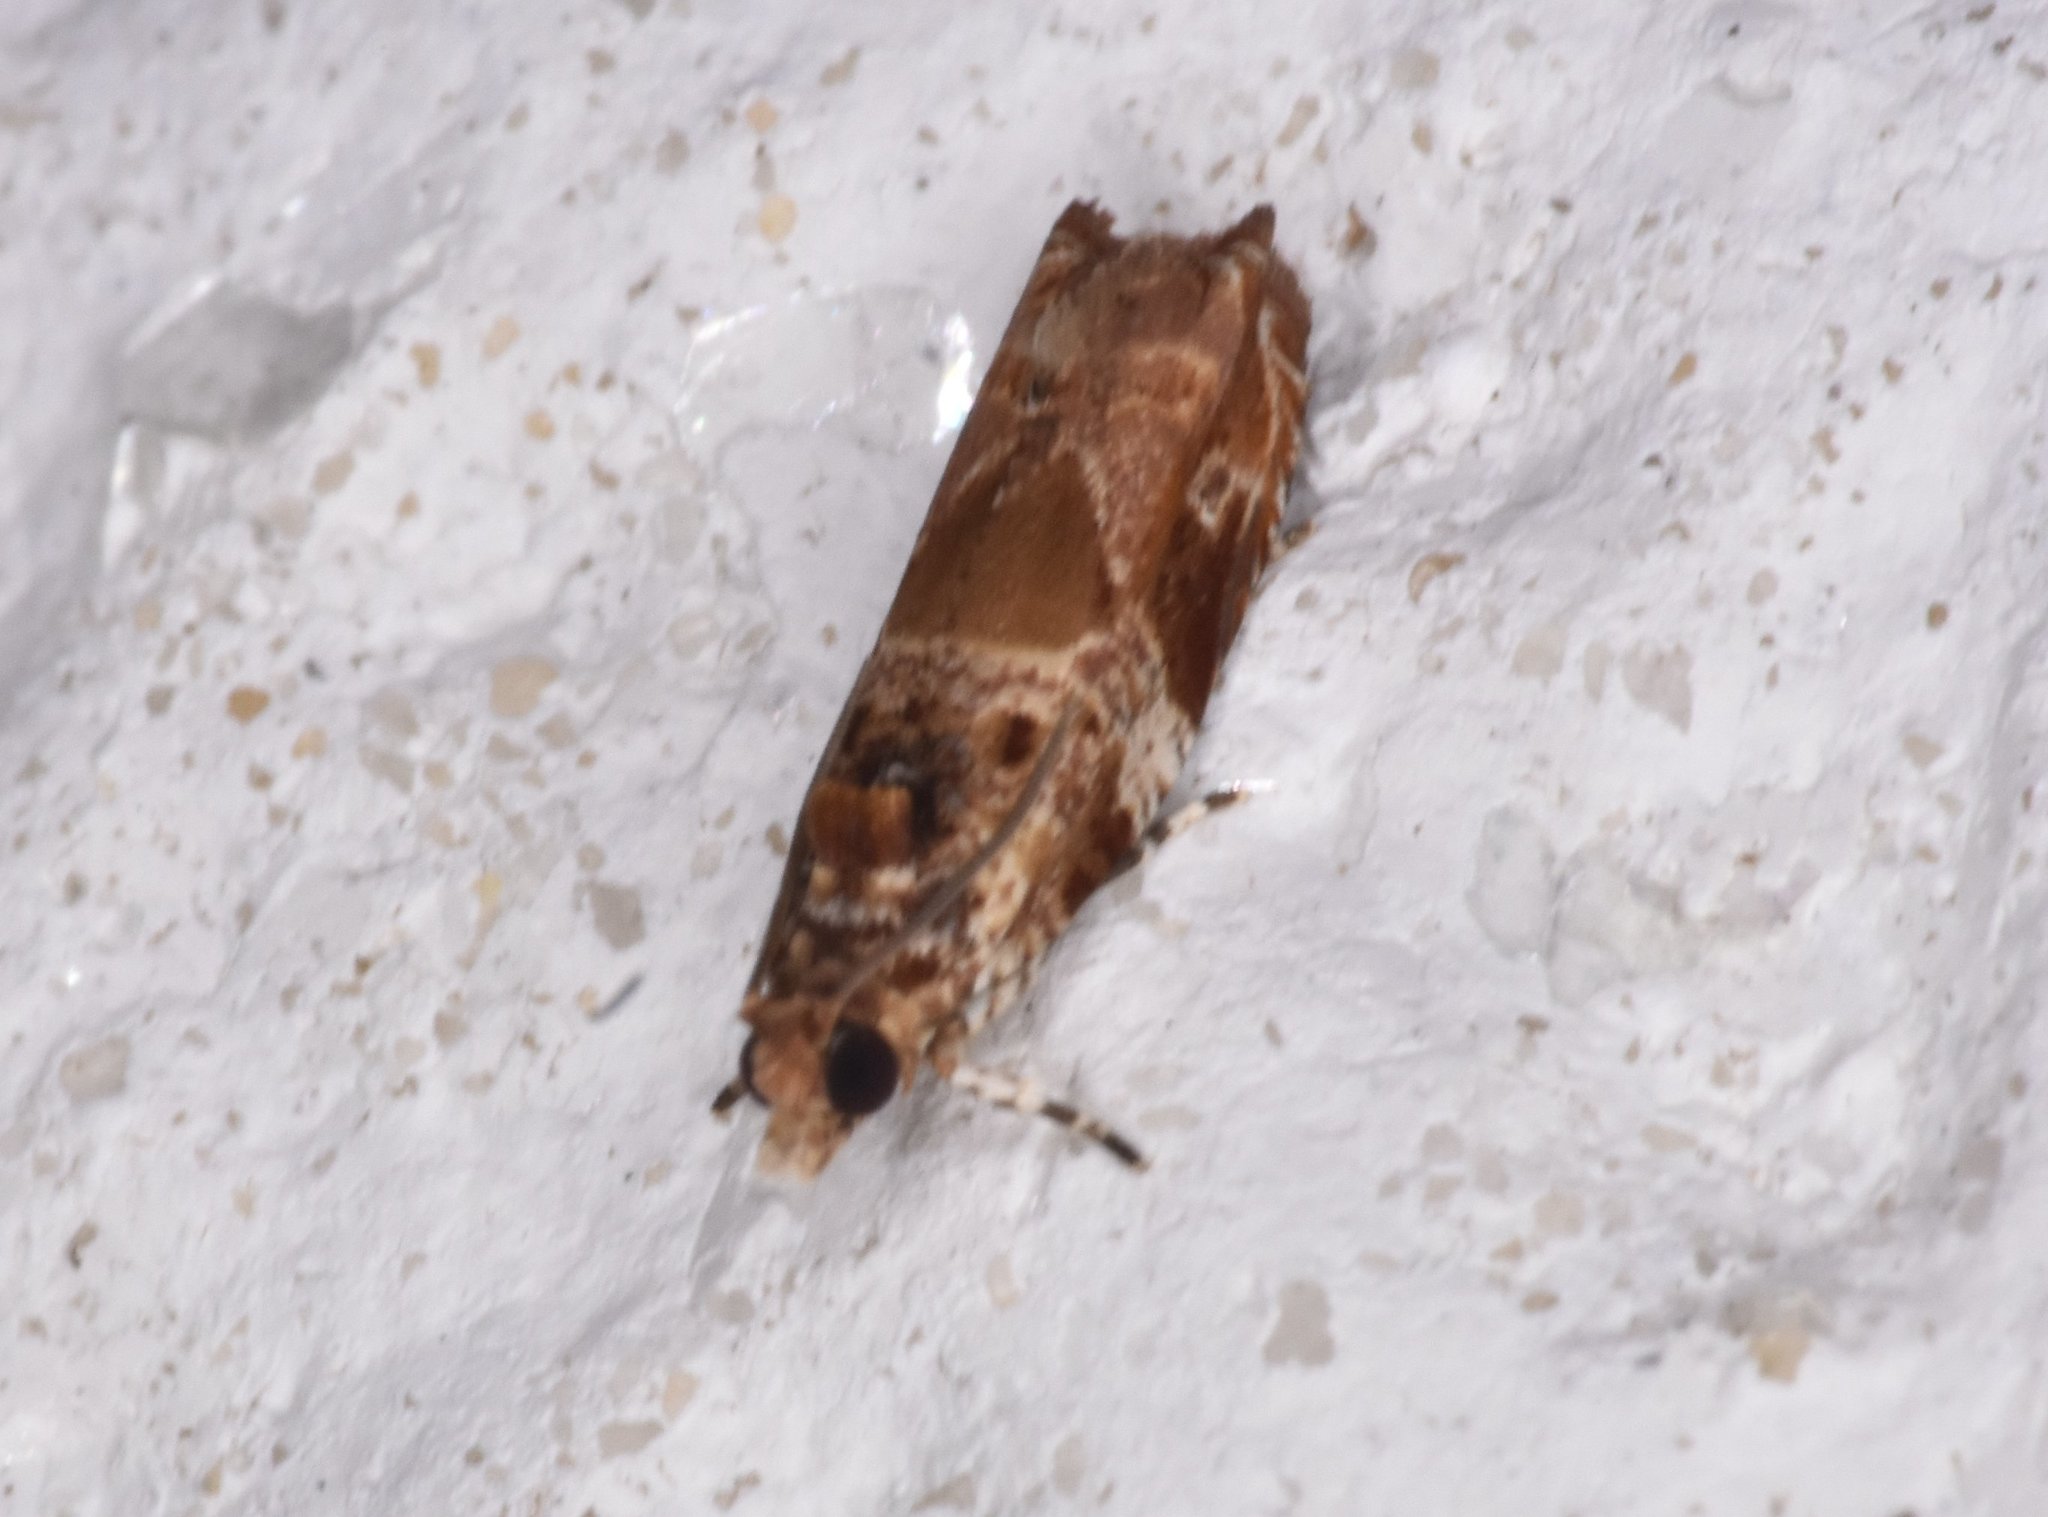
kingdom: Animalia
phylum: Arthropoda
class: Insecta
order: Lepidoptera
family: Tortricidae
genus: Cacocharis
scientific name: Cacocharis cymotoma
